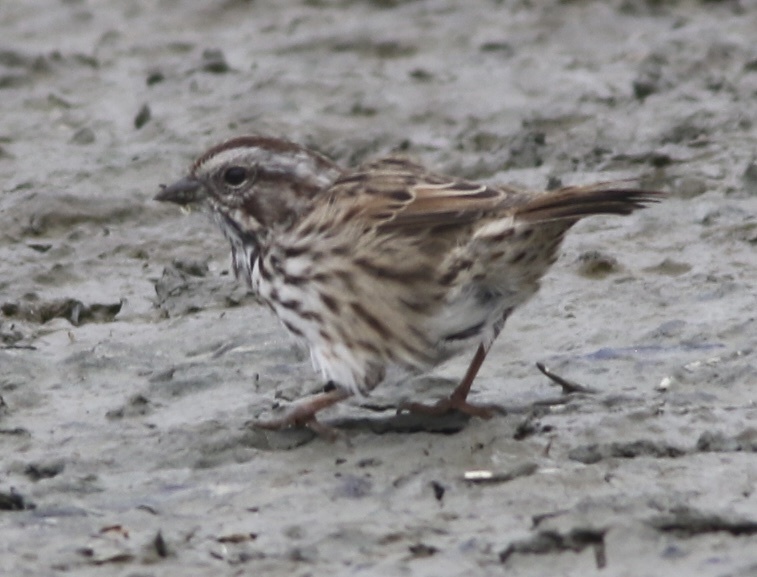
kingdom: Animalia
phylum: Chordata
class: Aves
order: Passeriformes
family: Passerellidae
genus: Melospiza
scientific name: Melospiza melodia
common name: Song sparrow
